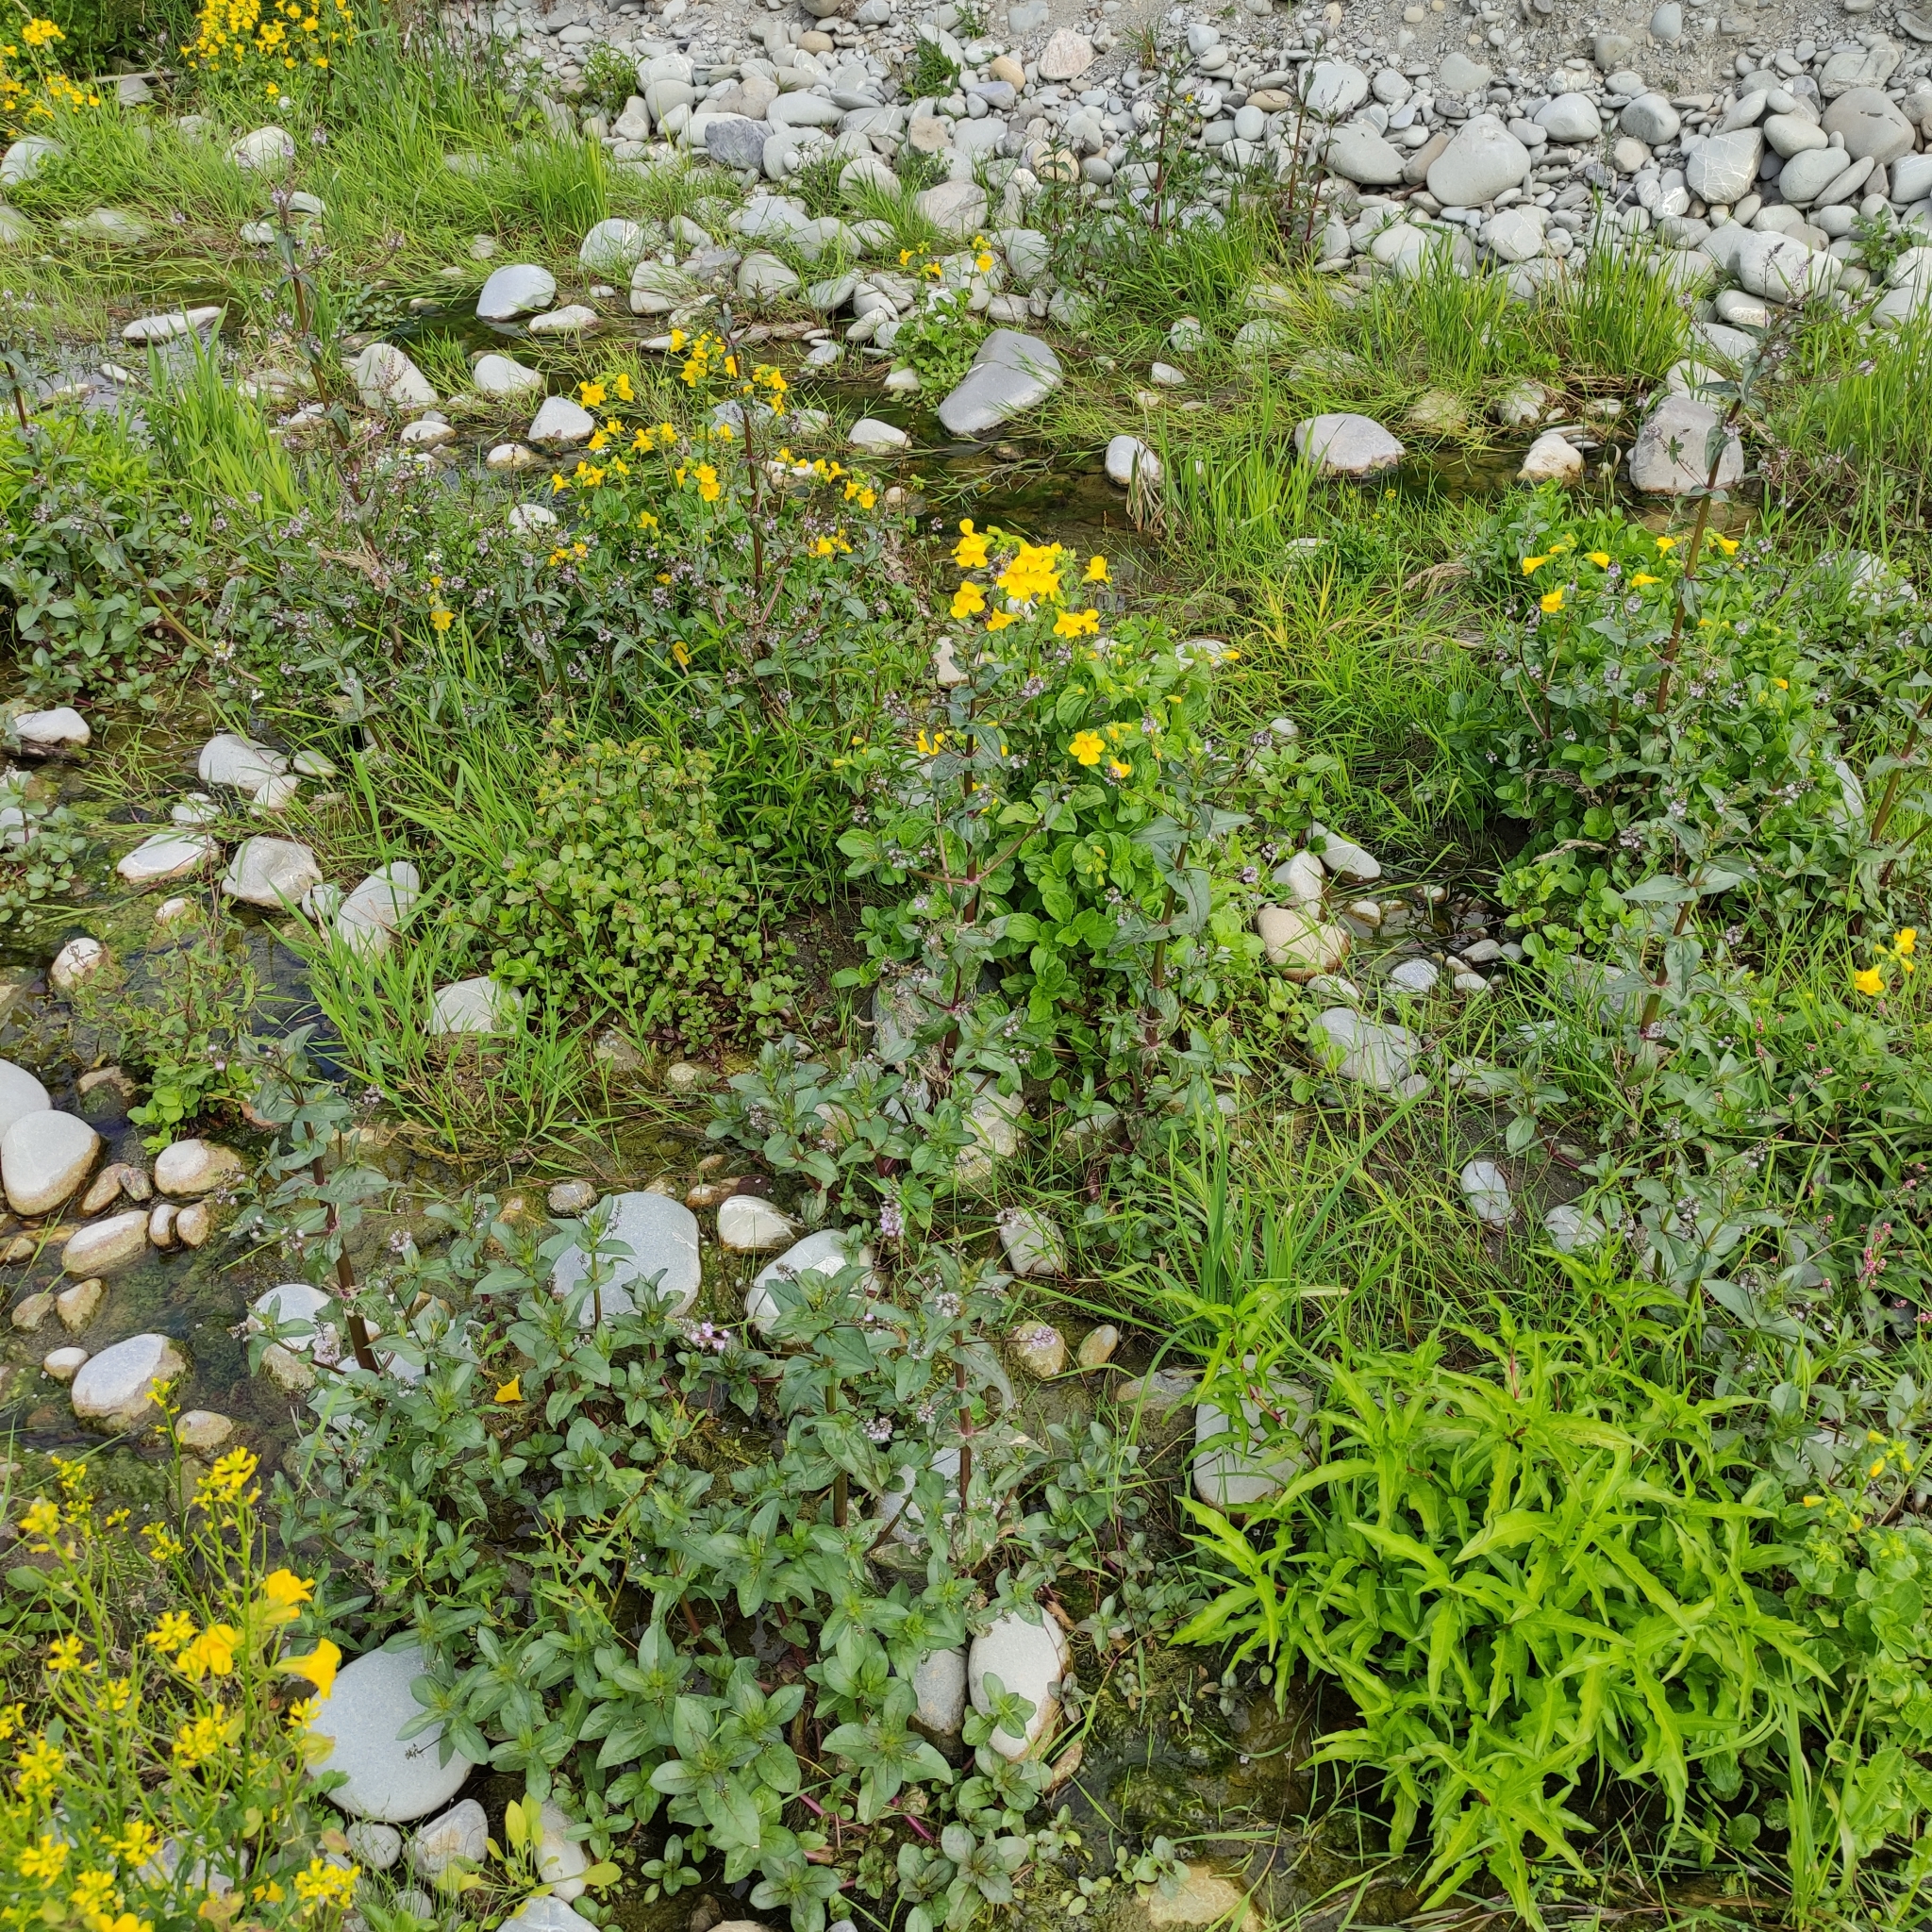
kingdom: Plantae
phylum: Tracheophyta
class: Magnoliopsida
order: Lamiales
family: Phrymaceae
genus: Erythranthe
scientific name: Erythranthe guttata
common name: Monkeyflower
